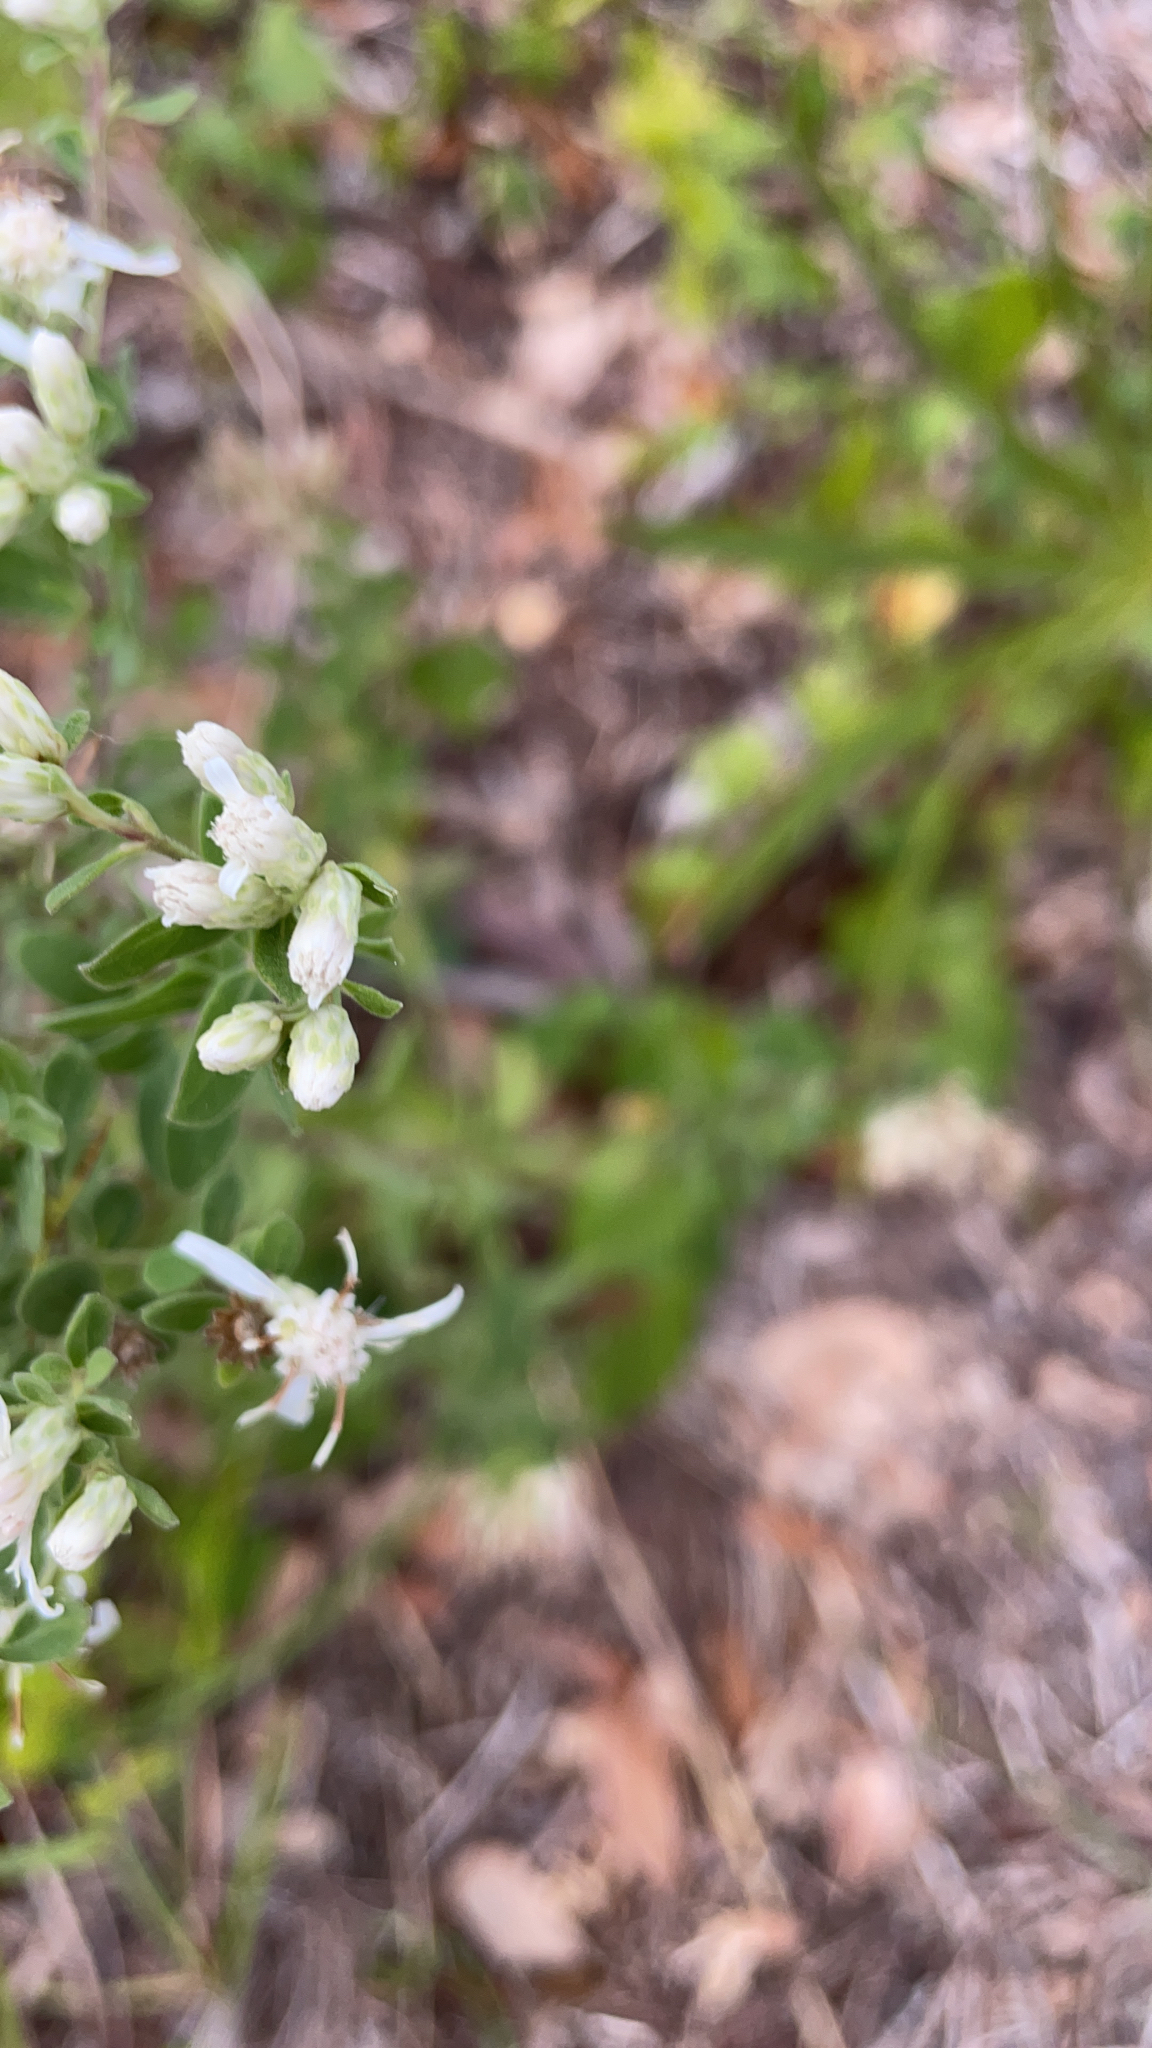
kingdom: Plantae
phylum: Tracheophyta
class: Magnoliopsida
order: Asterales
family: Asteraceae
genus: Sericocarpus
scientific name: Sericocarpus tortifolius
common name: Dixie aster
